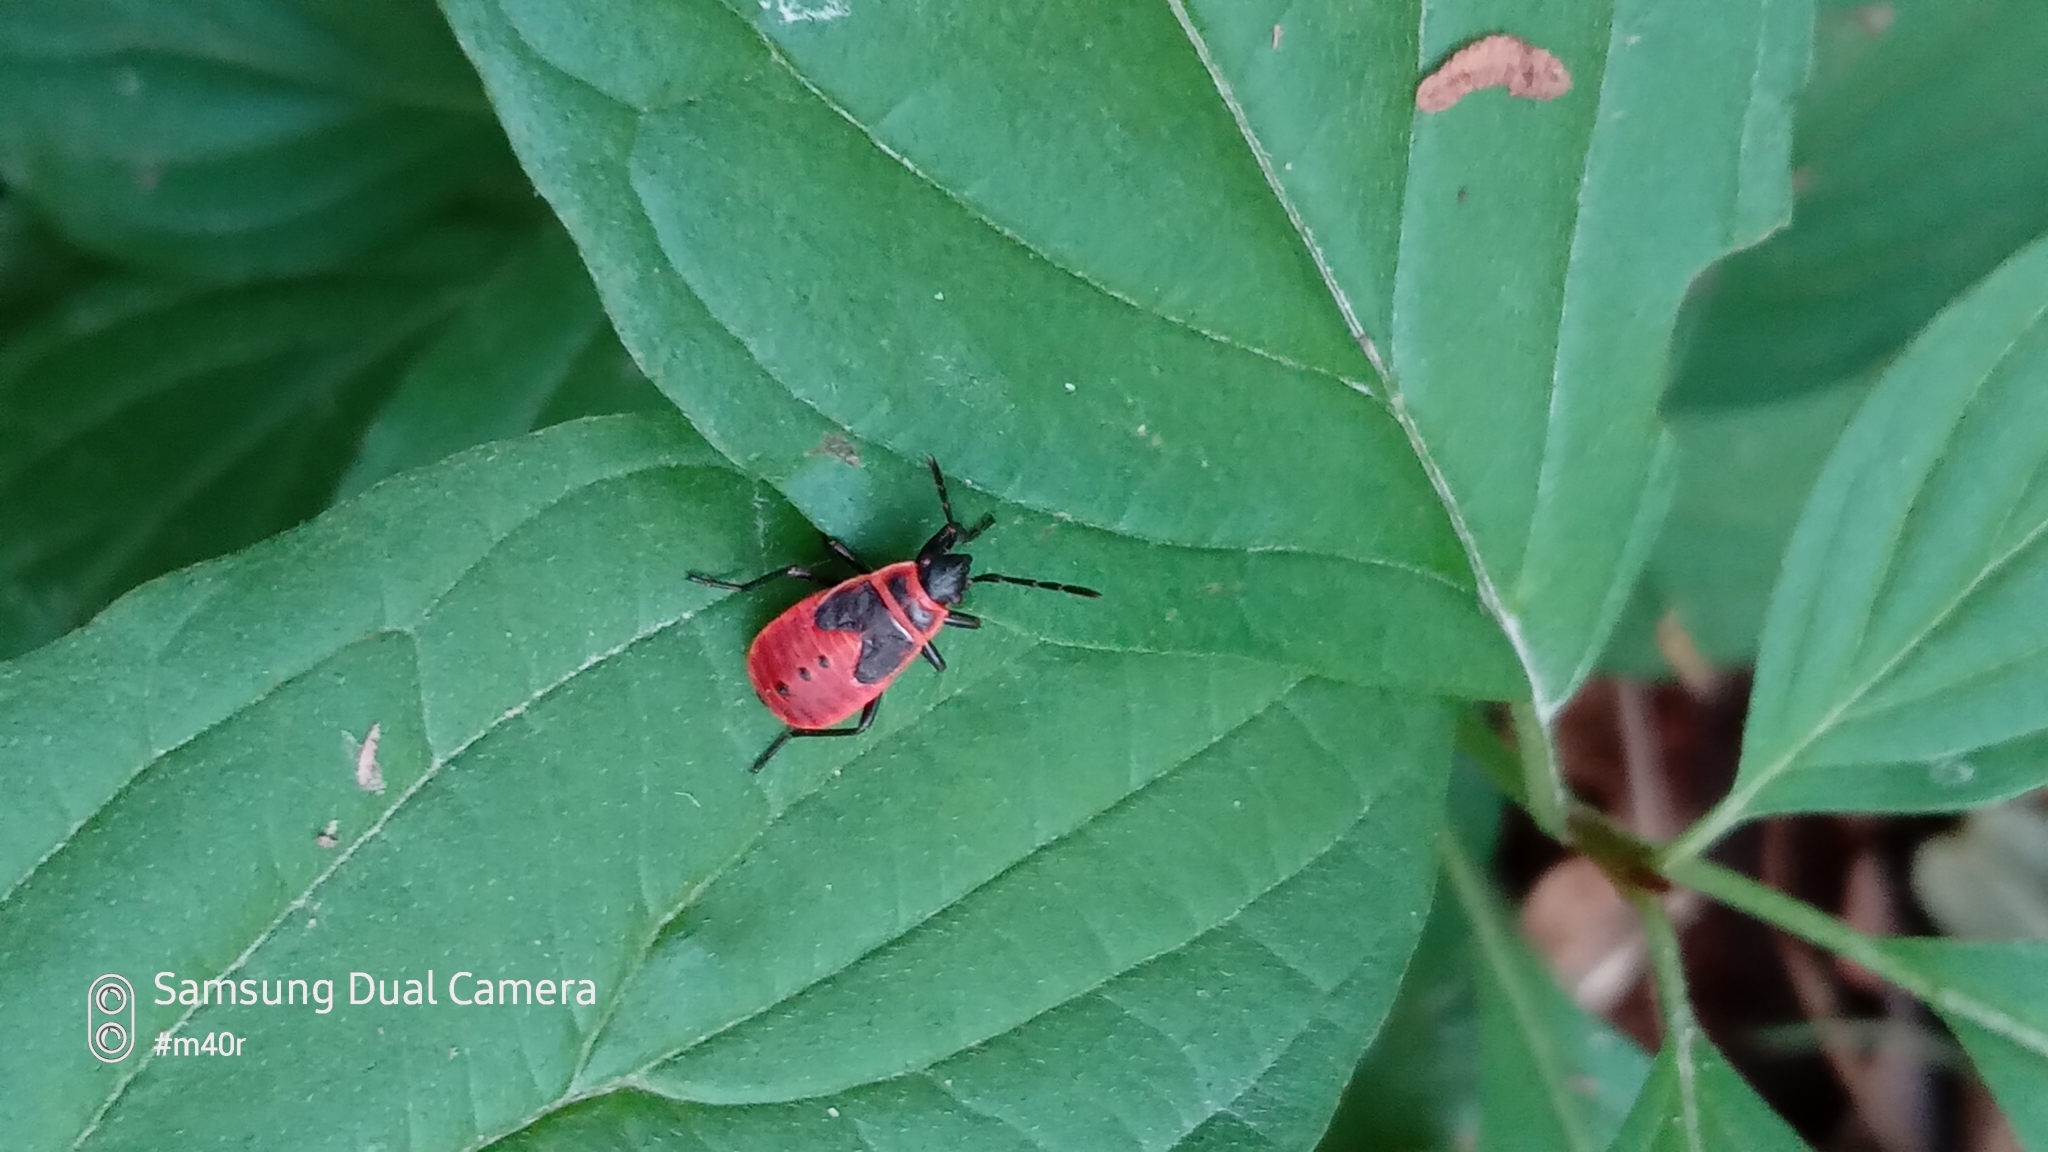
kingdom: Animalia
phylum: Arthropoda
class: Insecta
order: Hemiptera
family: Pyrrhocoridae
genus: Pyrrhocoris
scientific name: Pyrrhocoris apterus
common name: Firebug
